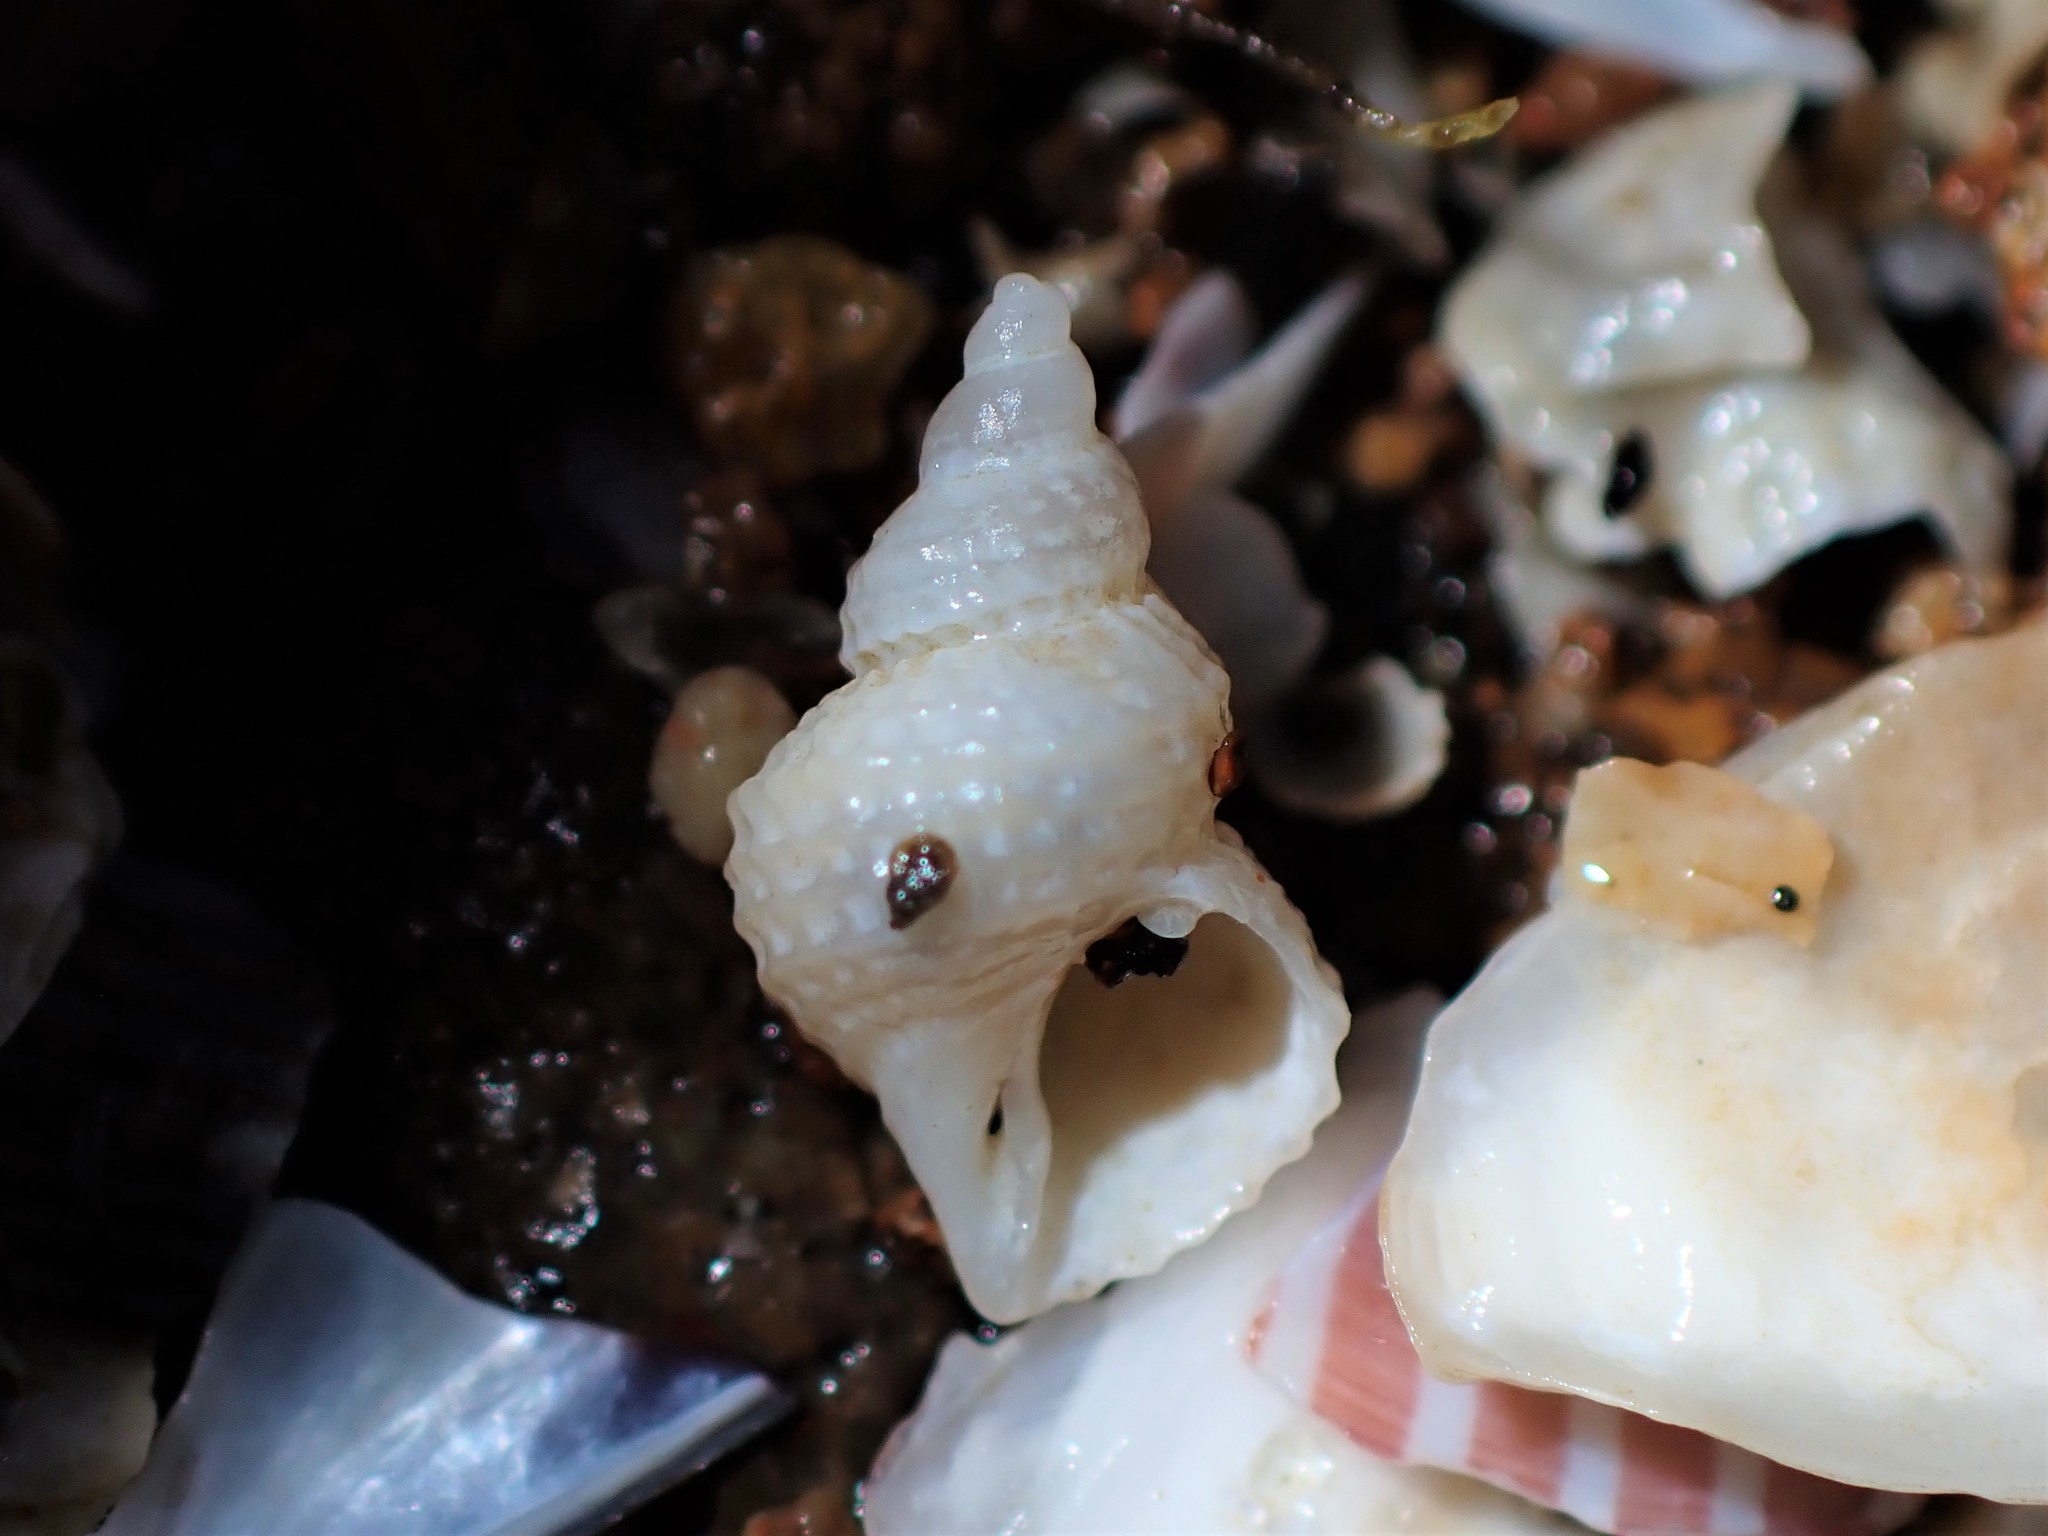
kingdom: Animalia
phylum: Mollusca
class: Gastropoda
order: Littorinimorpha
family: Capulidae
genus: Trichosirius
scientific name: Trichosirius inornatus
